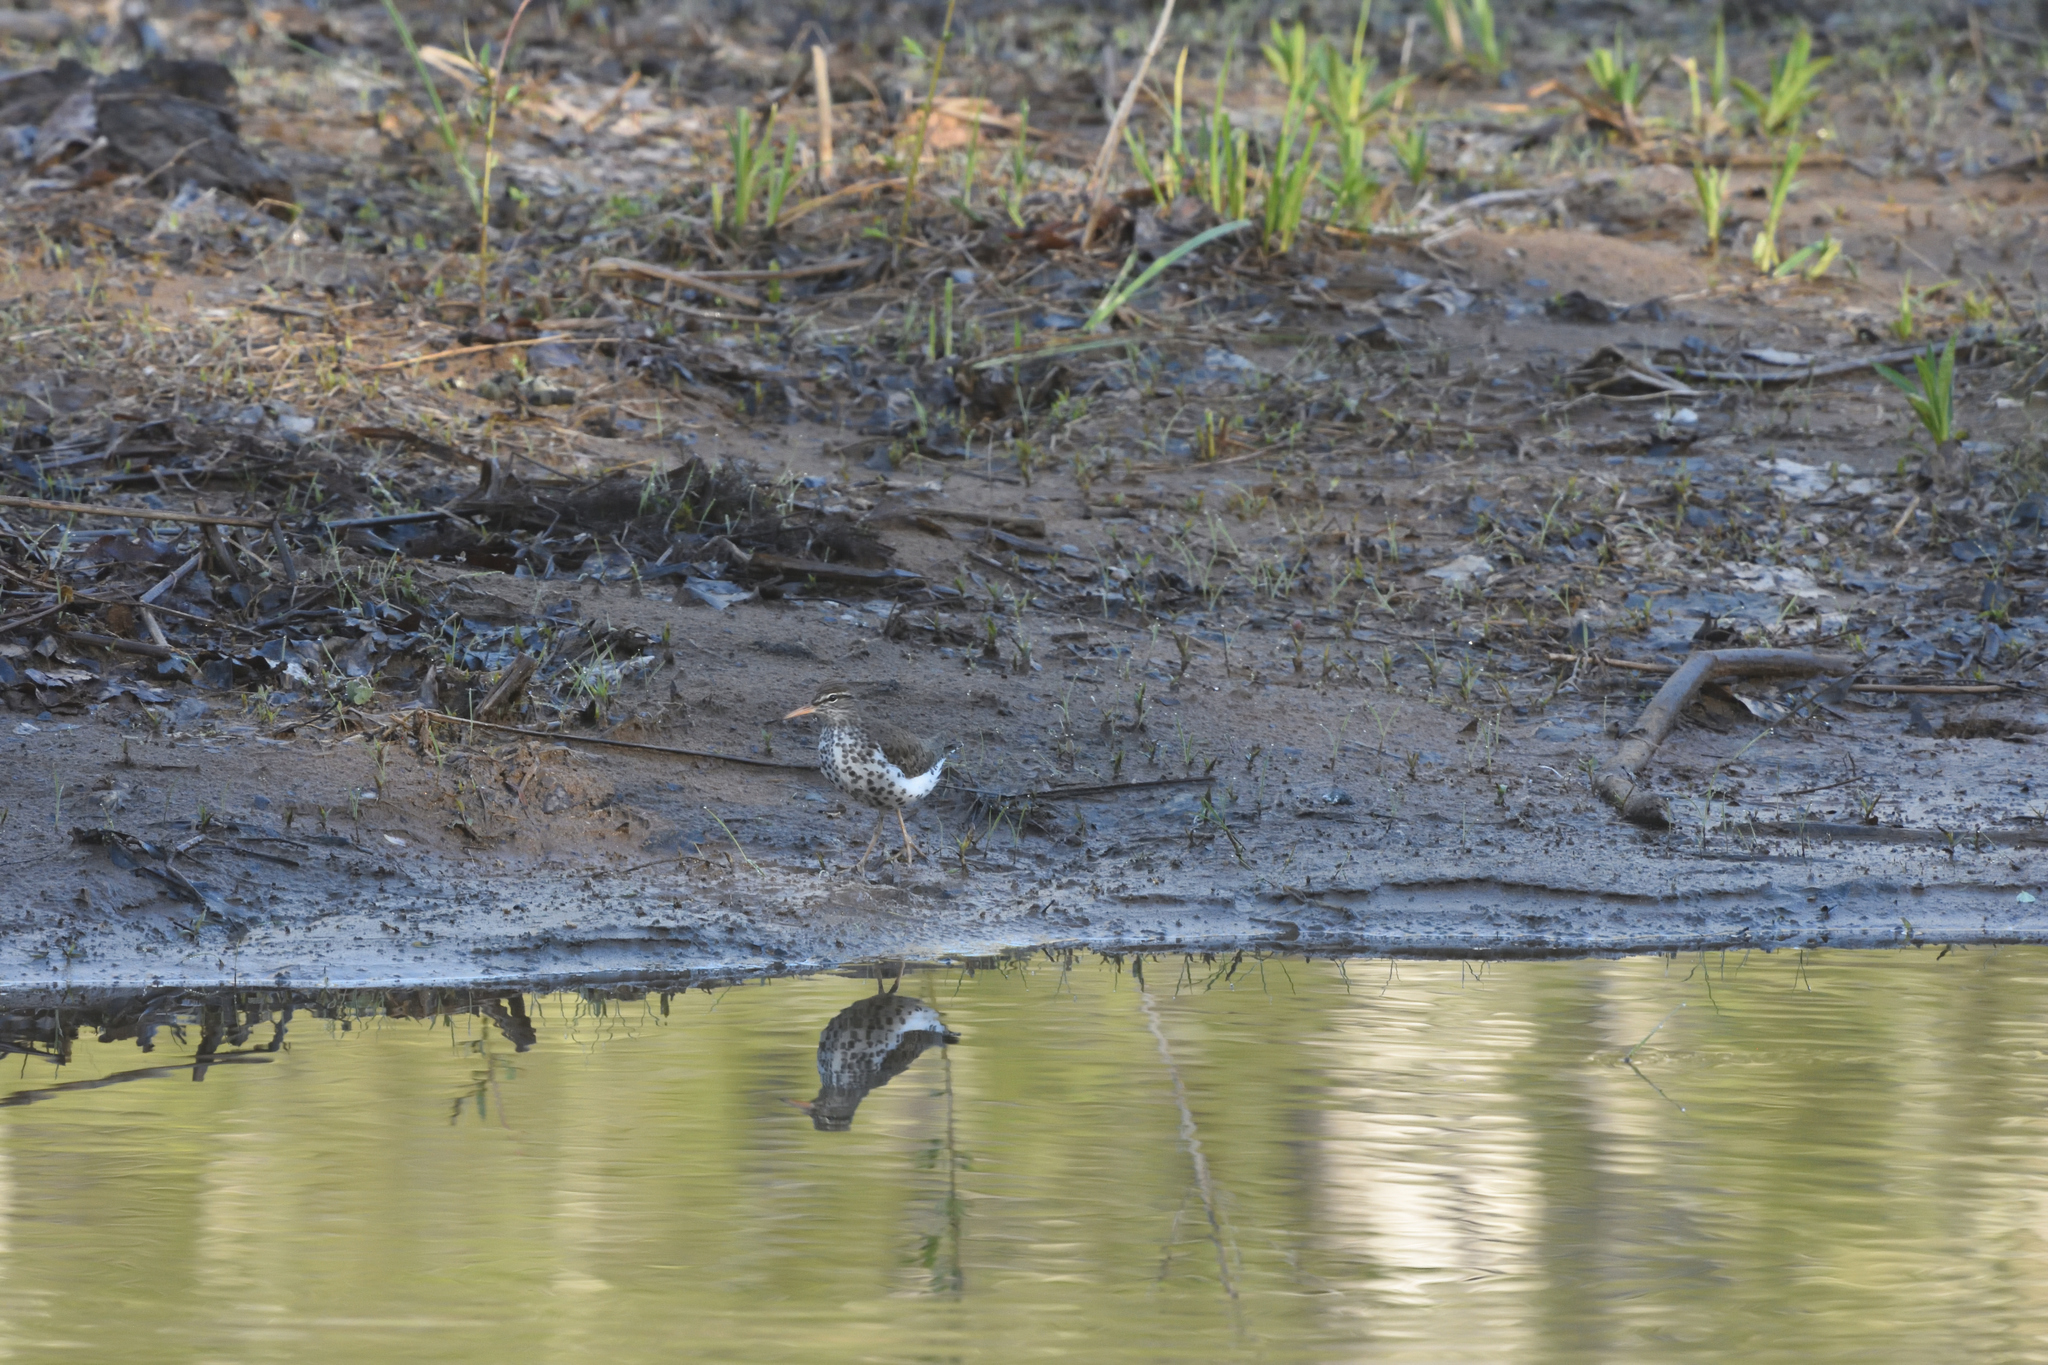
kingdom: Animalia
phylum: Chordata
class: Aves
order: Charadriiformes
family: Scolopacidae
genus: Actitis
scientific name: Actitis macularius
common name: Spotted sandpiper
